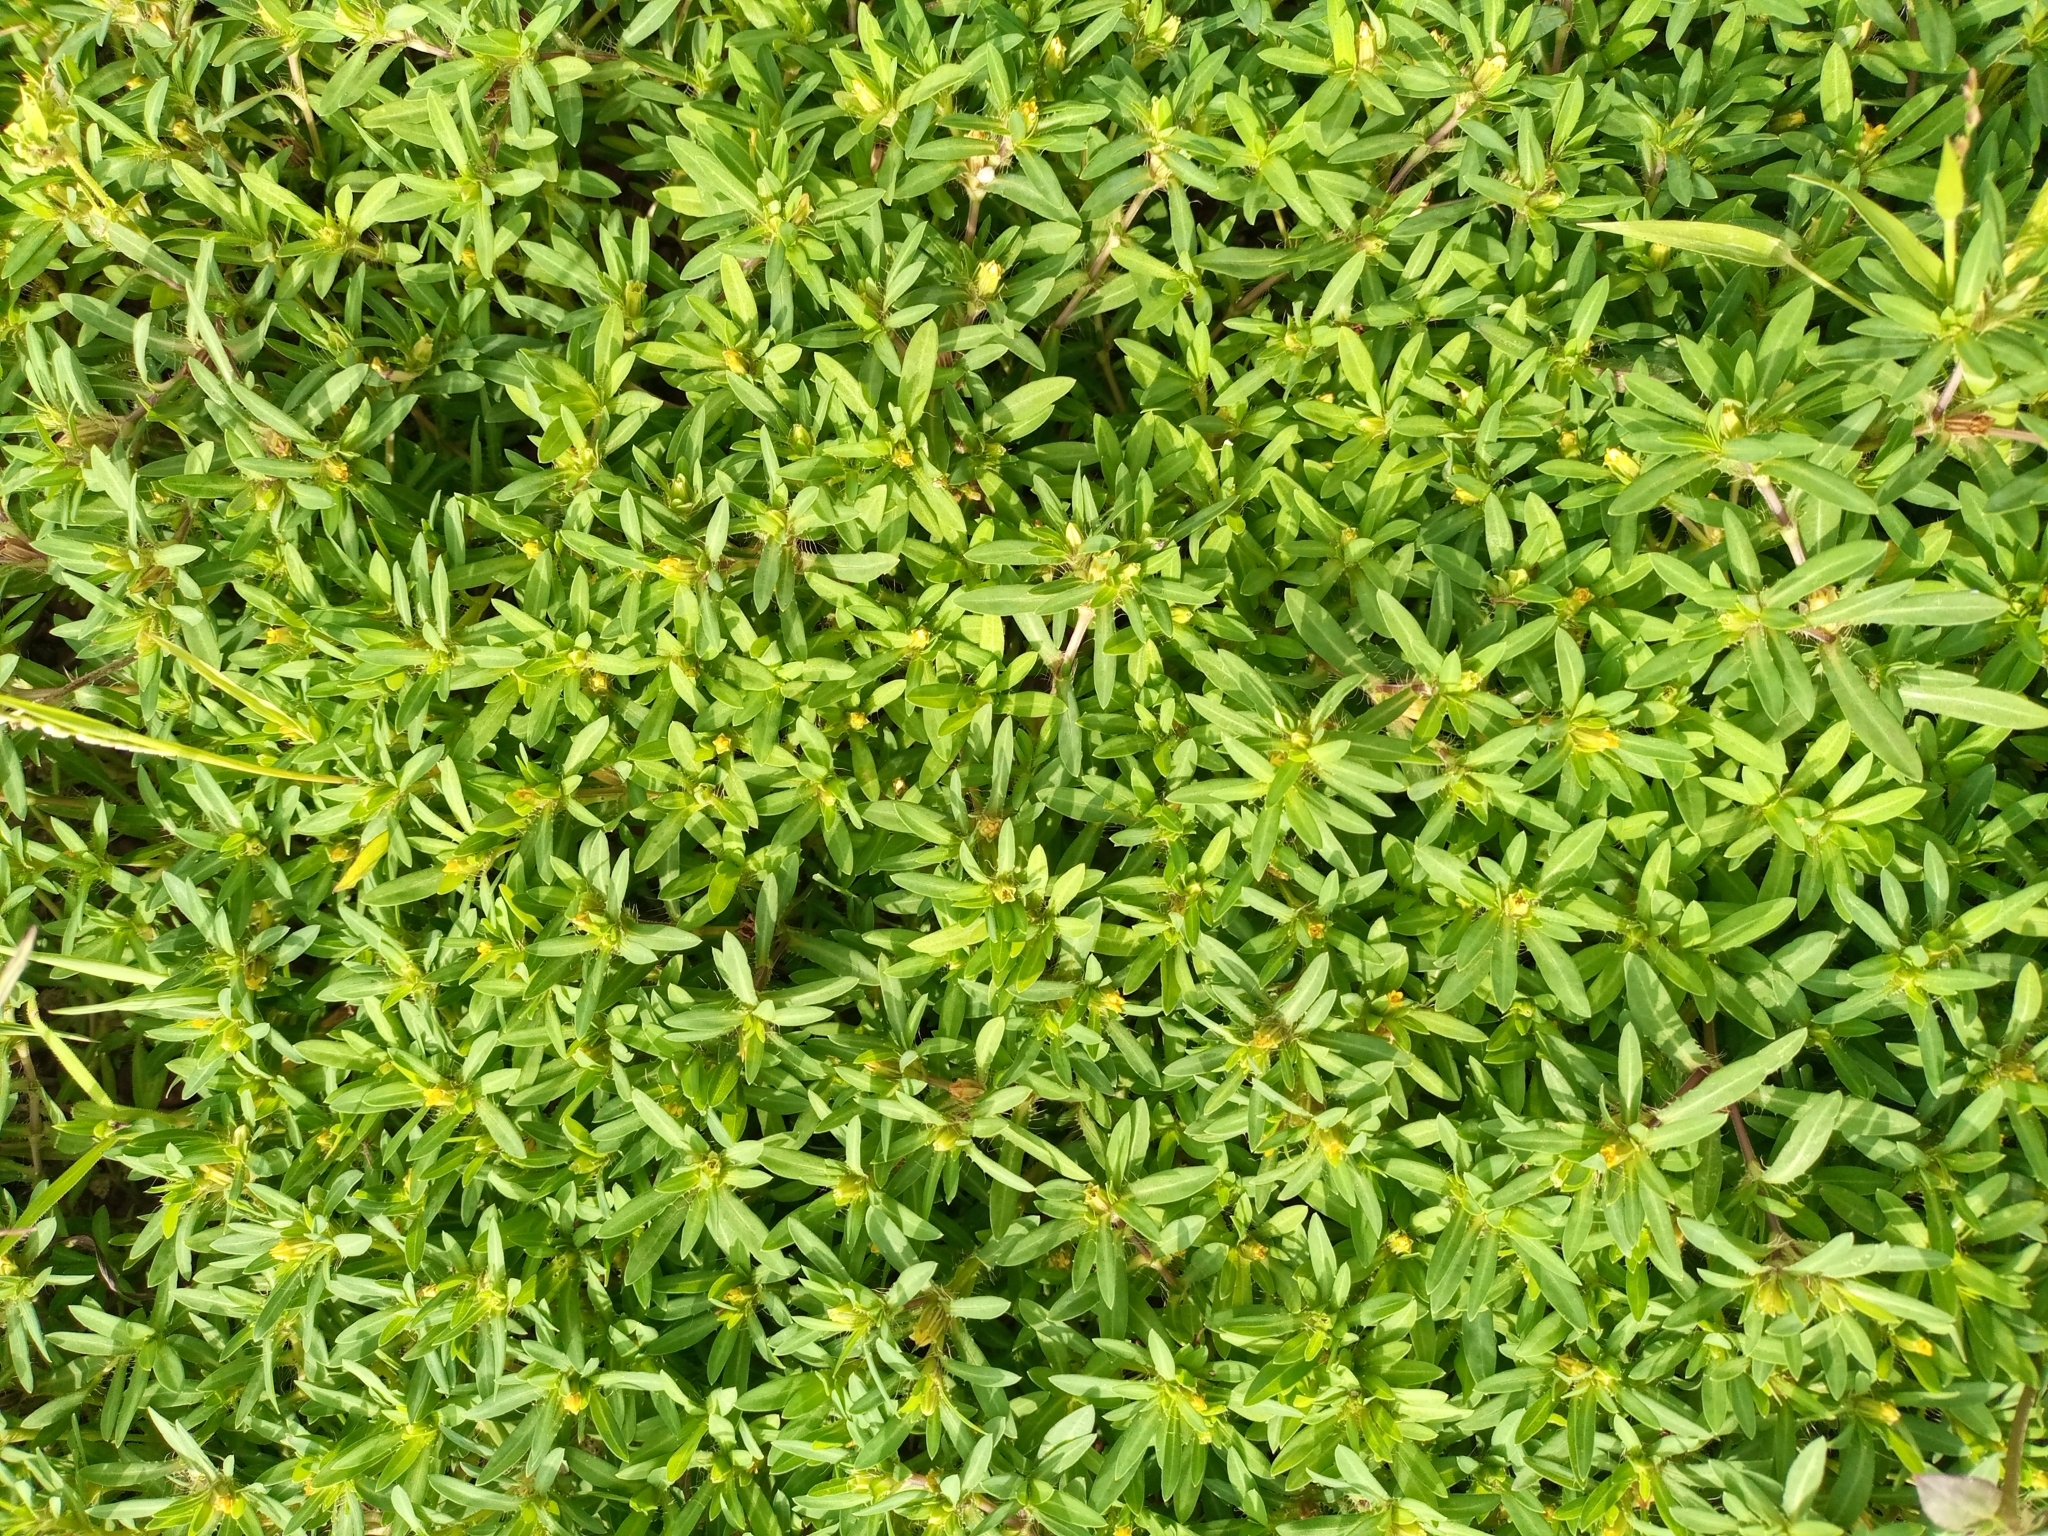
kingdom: Plantae
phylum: Tracheophyta
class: Magnoliopsida
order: Asterales
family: Asteraceae
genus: Pectis
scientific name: Pectis prostrata
